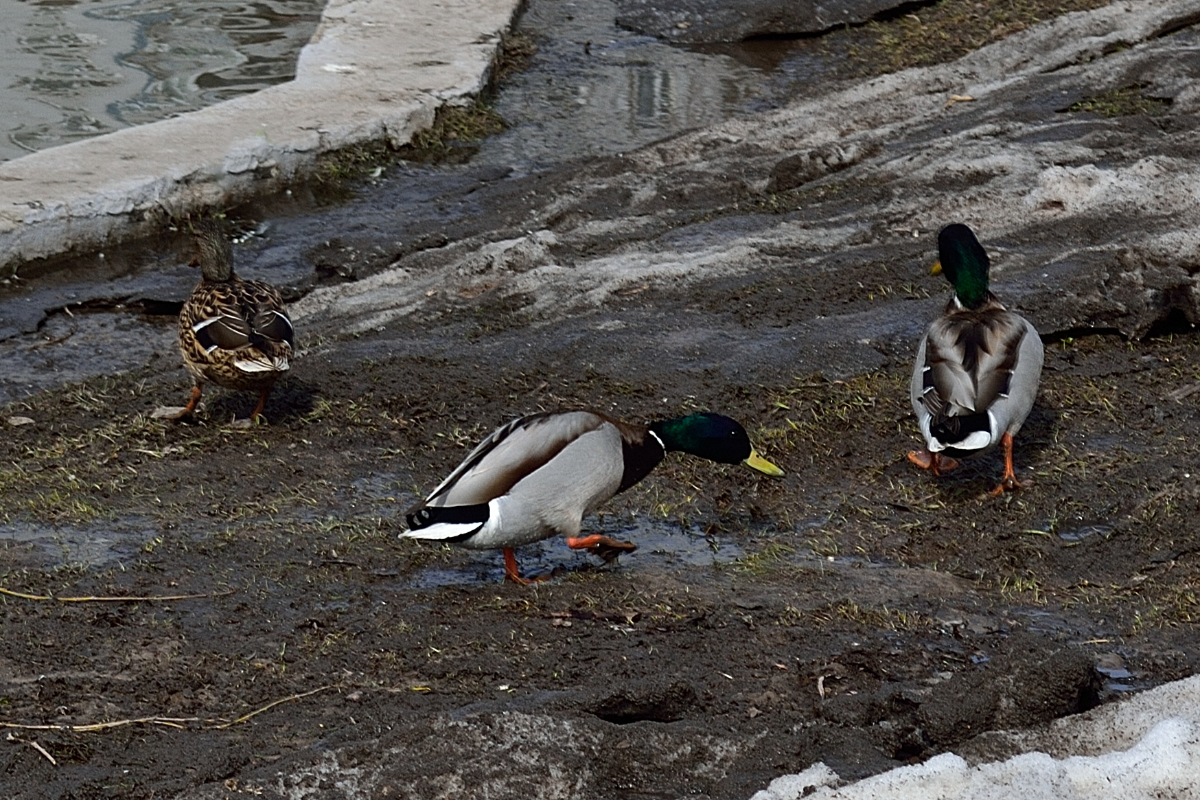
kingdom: Animalia
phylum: Chordata
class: Aves
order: Anseriformes
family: Anatidae
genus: Anas
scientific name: Anas platyrhynchos
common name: Mallard
